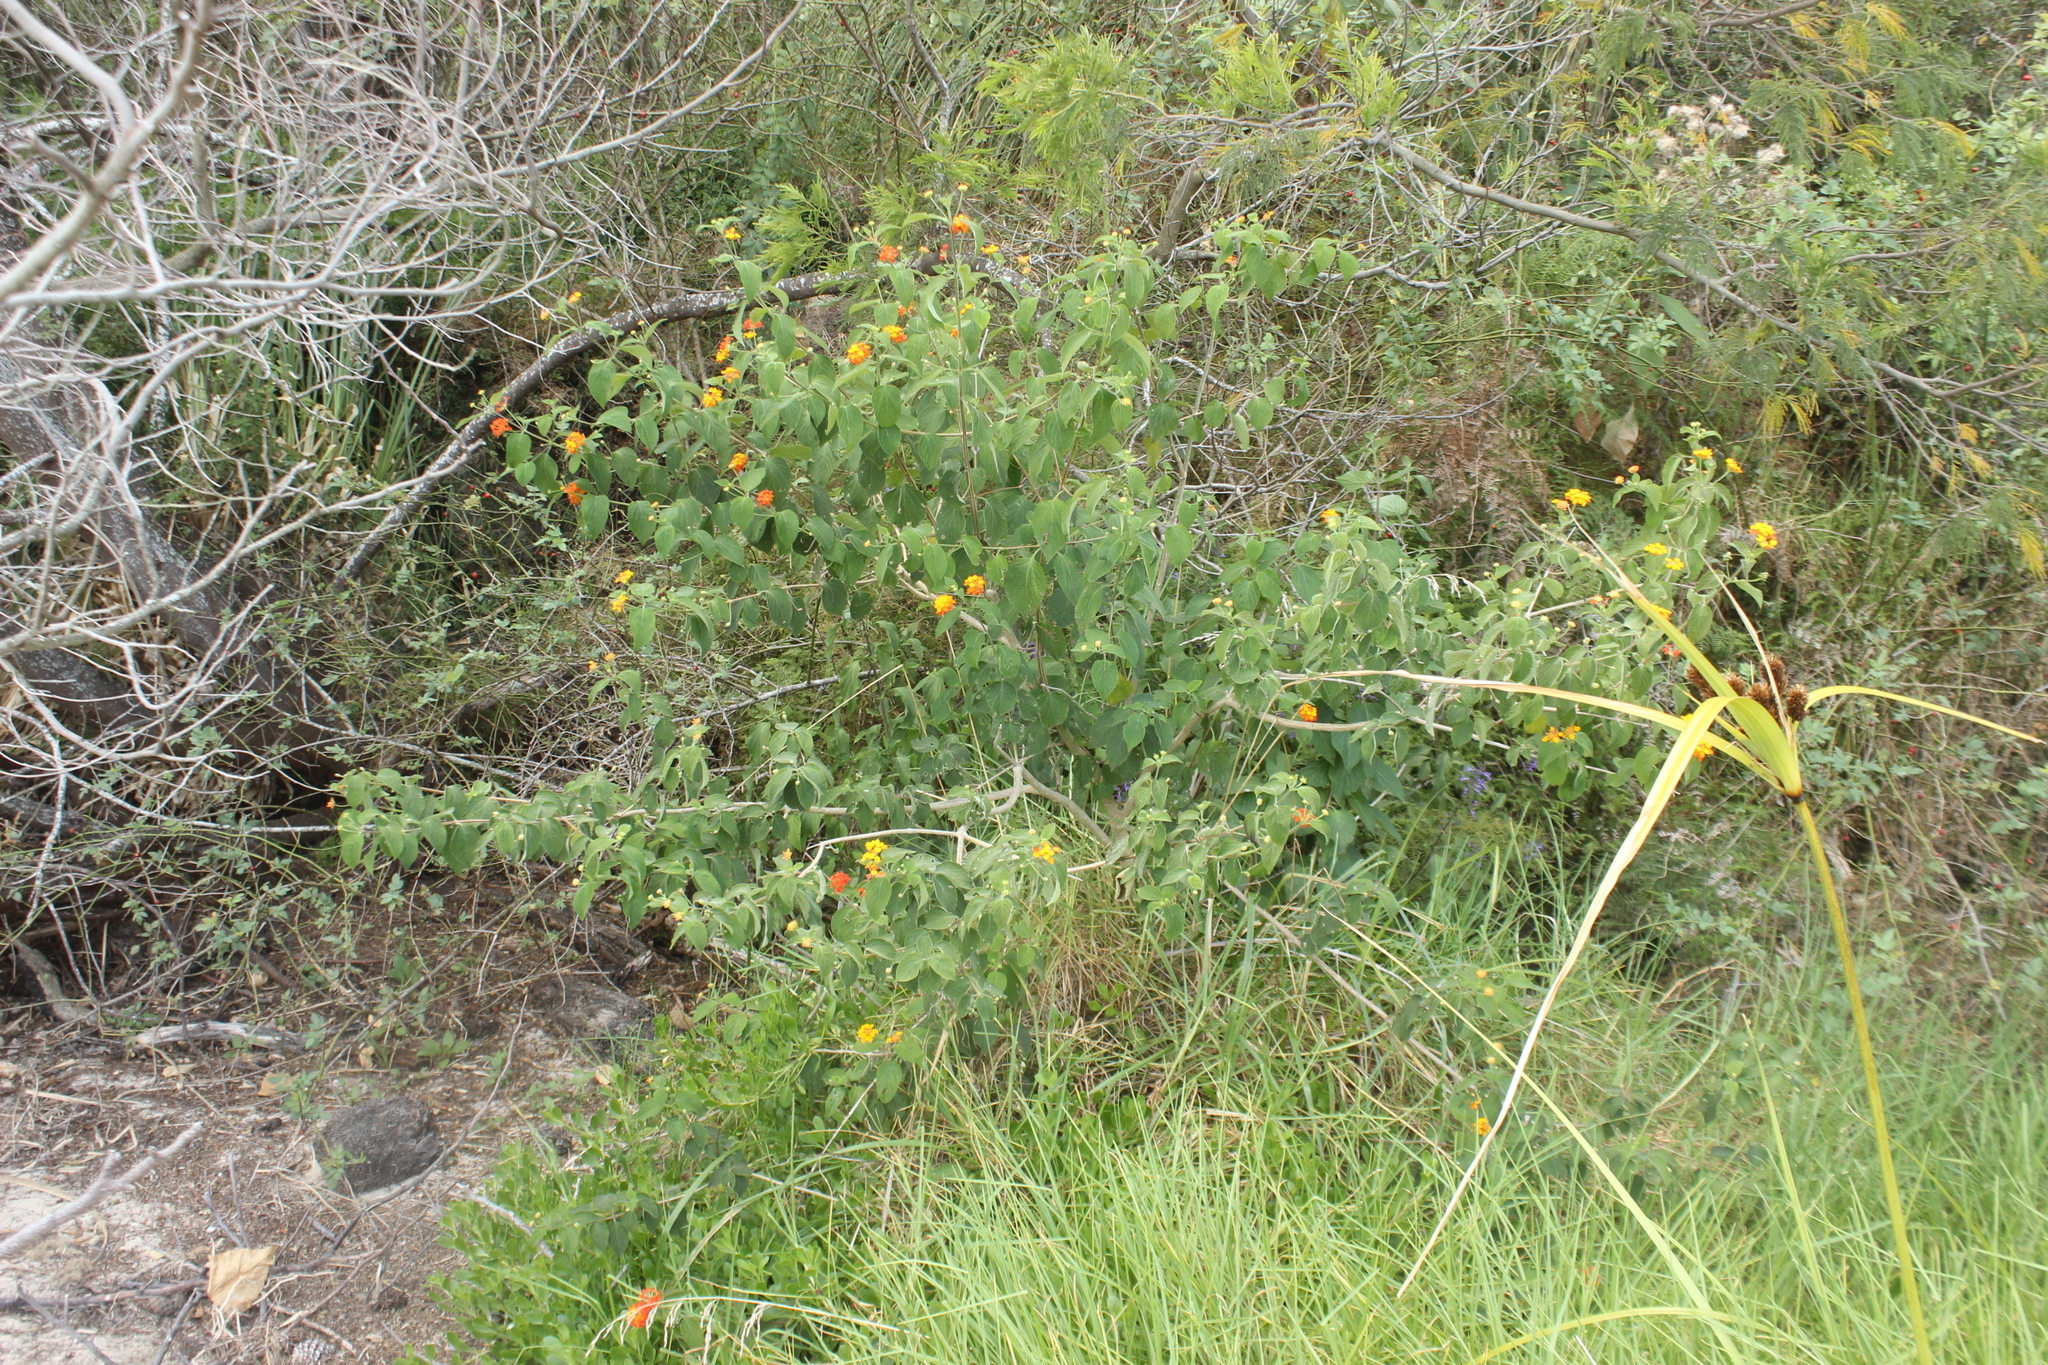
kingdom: Plantae
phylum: Tracheophyta
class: Magnoliopsida
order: Lamiales
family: Verbenaceae
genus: Lantana
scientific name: Lantana camara
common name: Lantana
